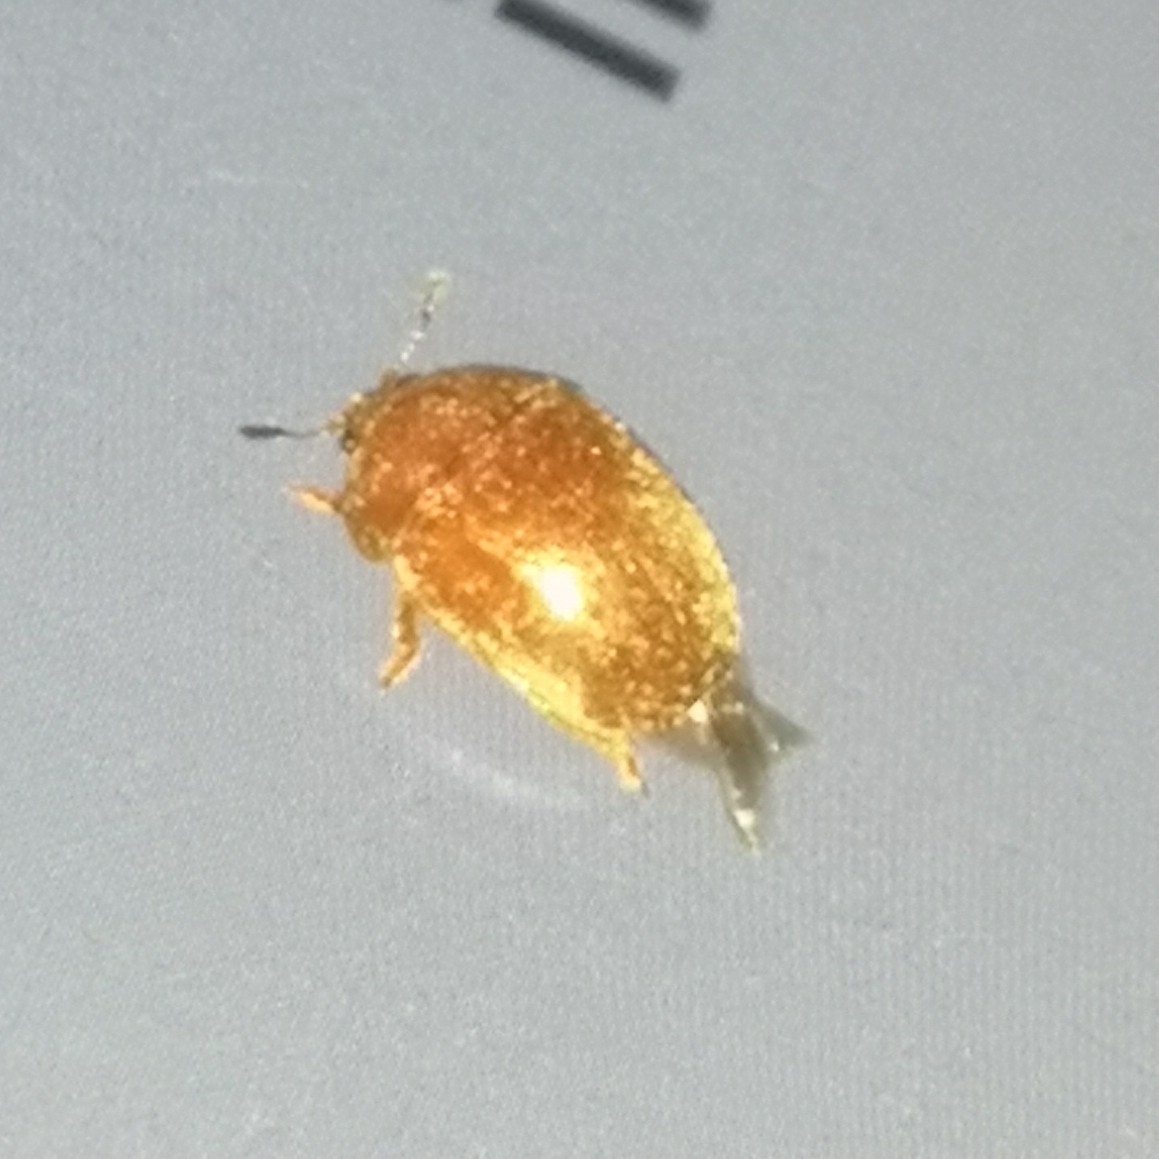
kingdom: Animalia
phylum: Arthropoda
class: Insecta
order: Coleoptera
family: Nitidulidae
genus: Cychramus
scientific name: Cychramus luteus
